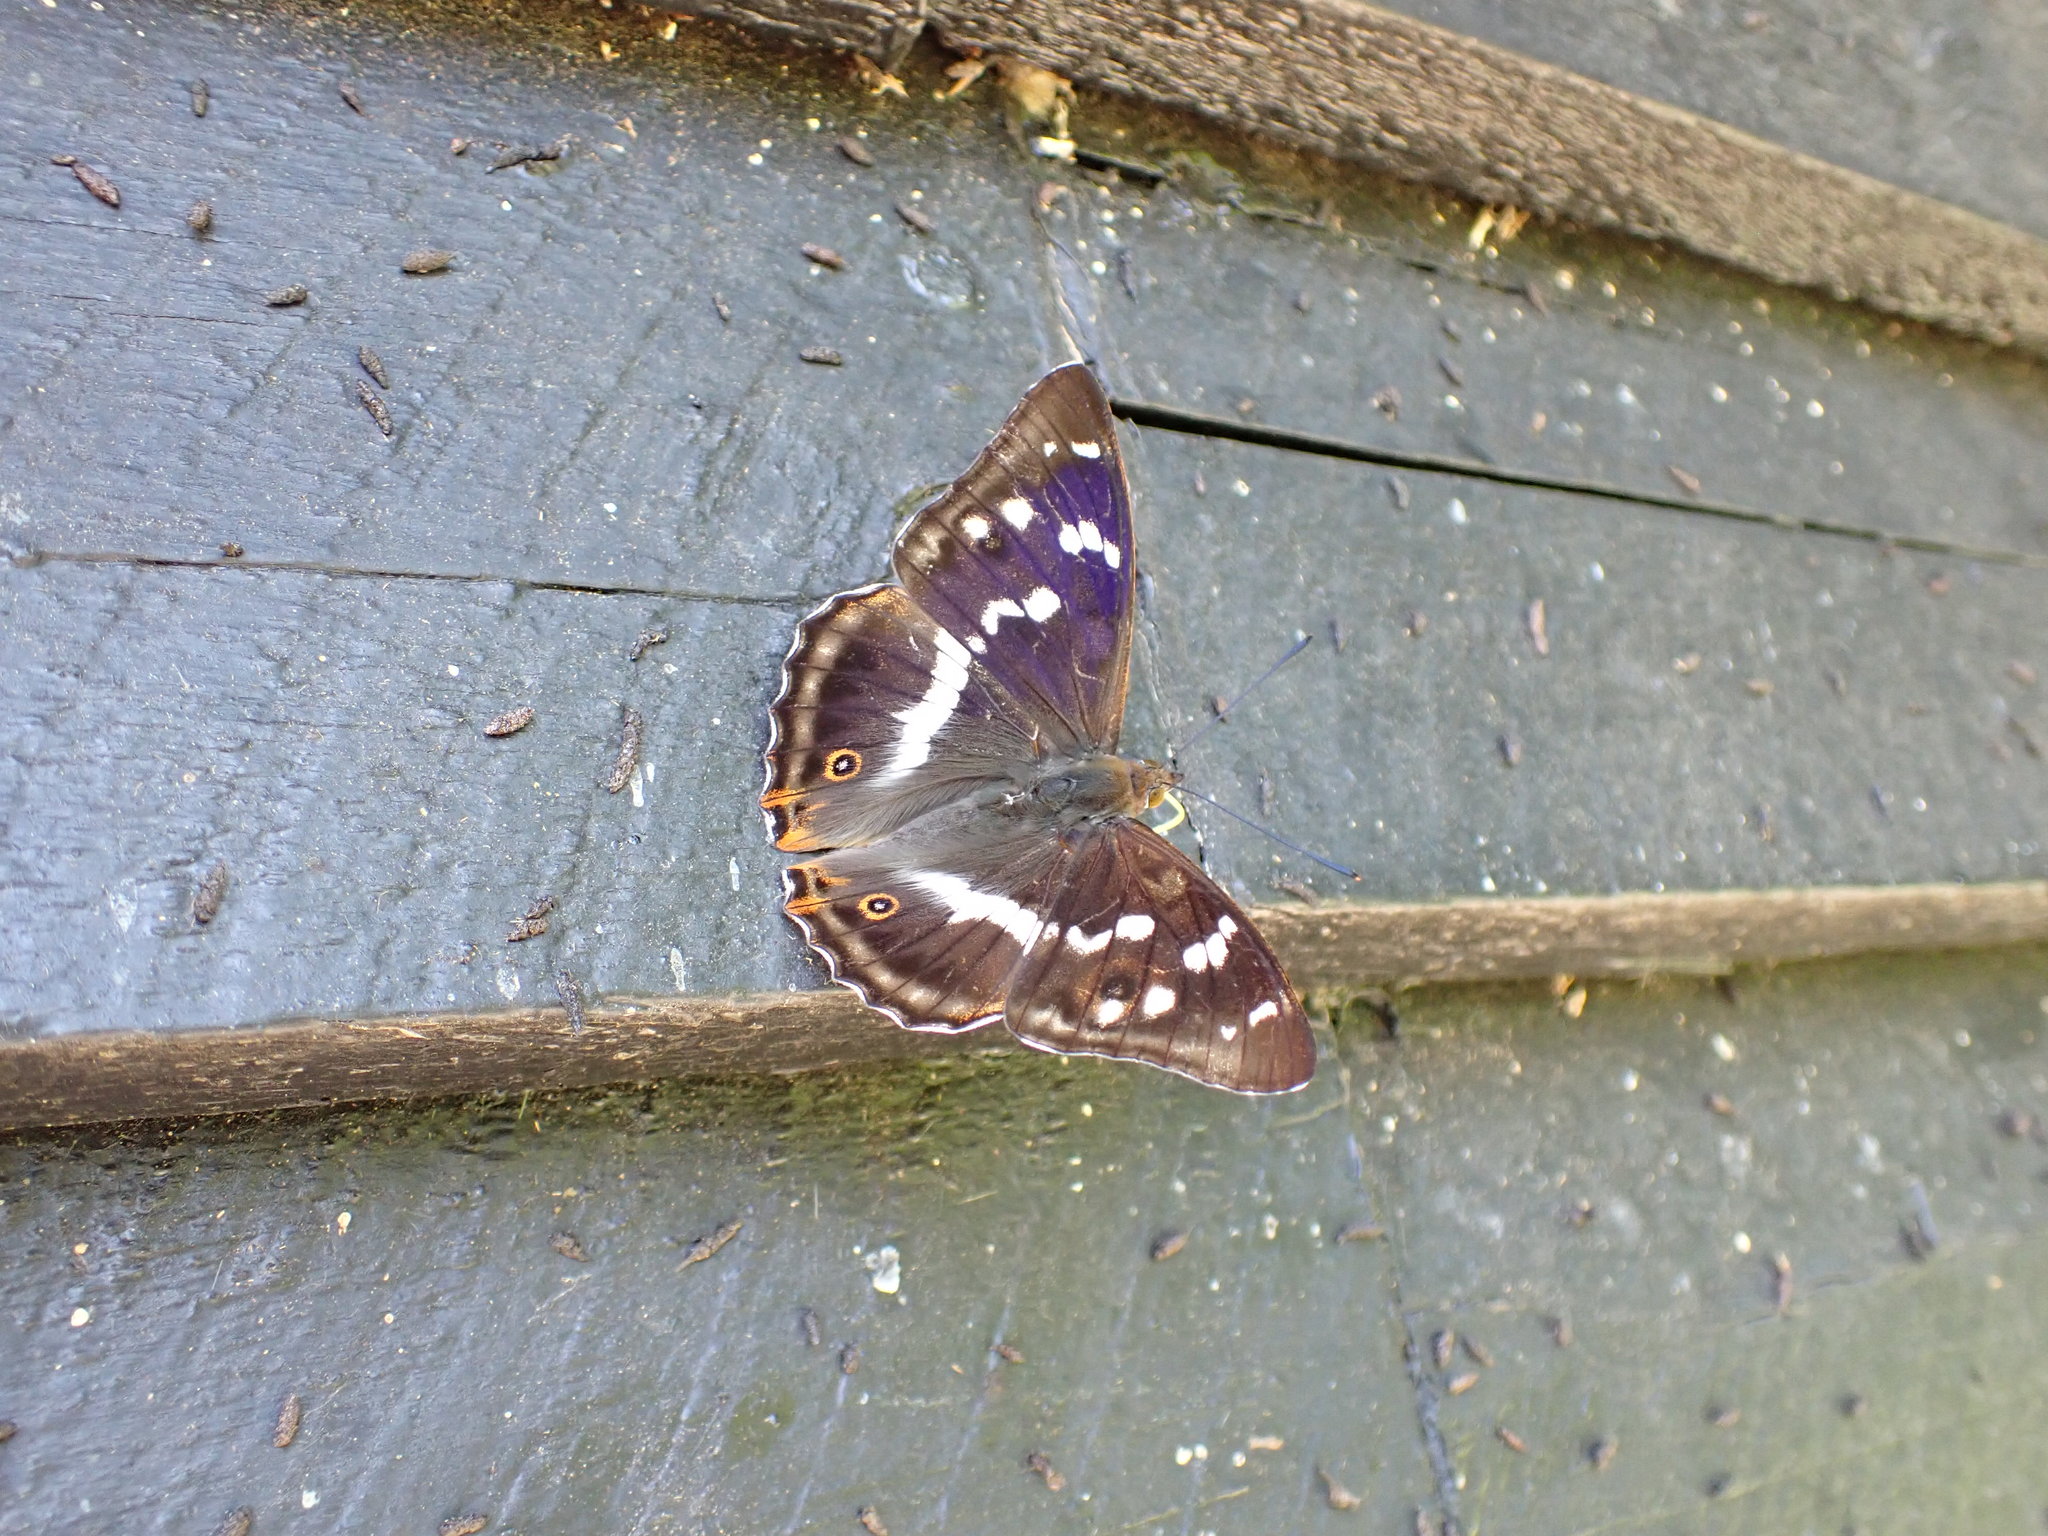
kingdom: Animalia
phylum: Arthropoda
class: Insecta
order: Lepidoptera
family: Nymphalidae
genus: Apatura
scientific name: Apatura iris
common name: Purple emperor
